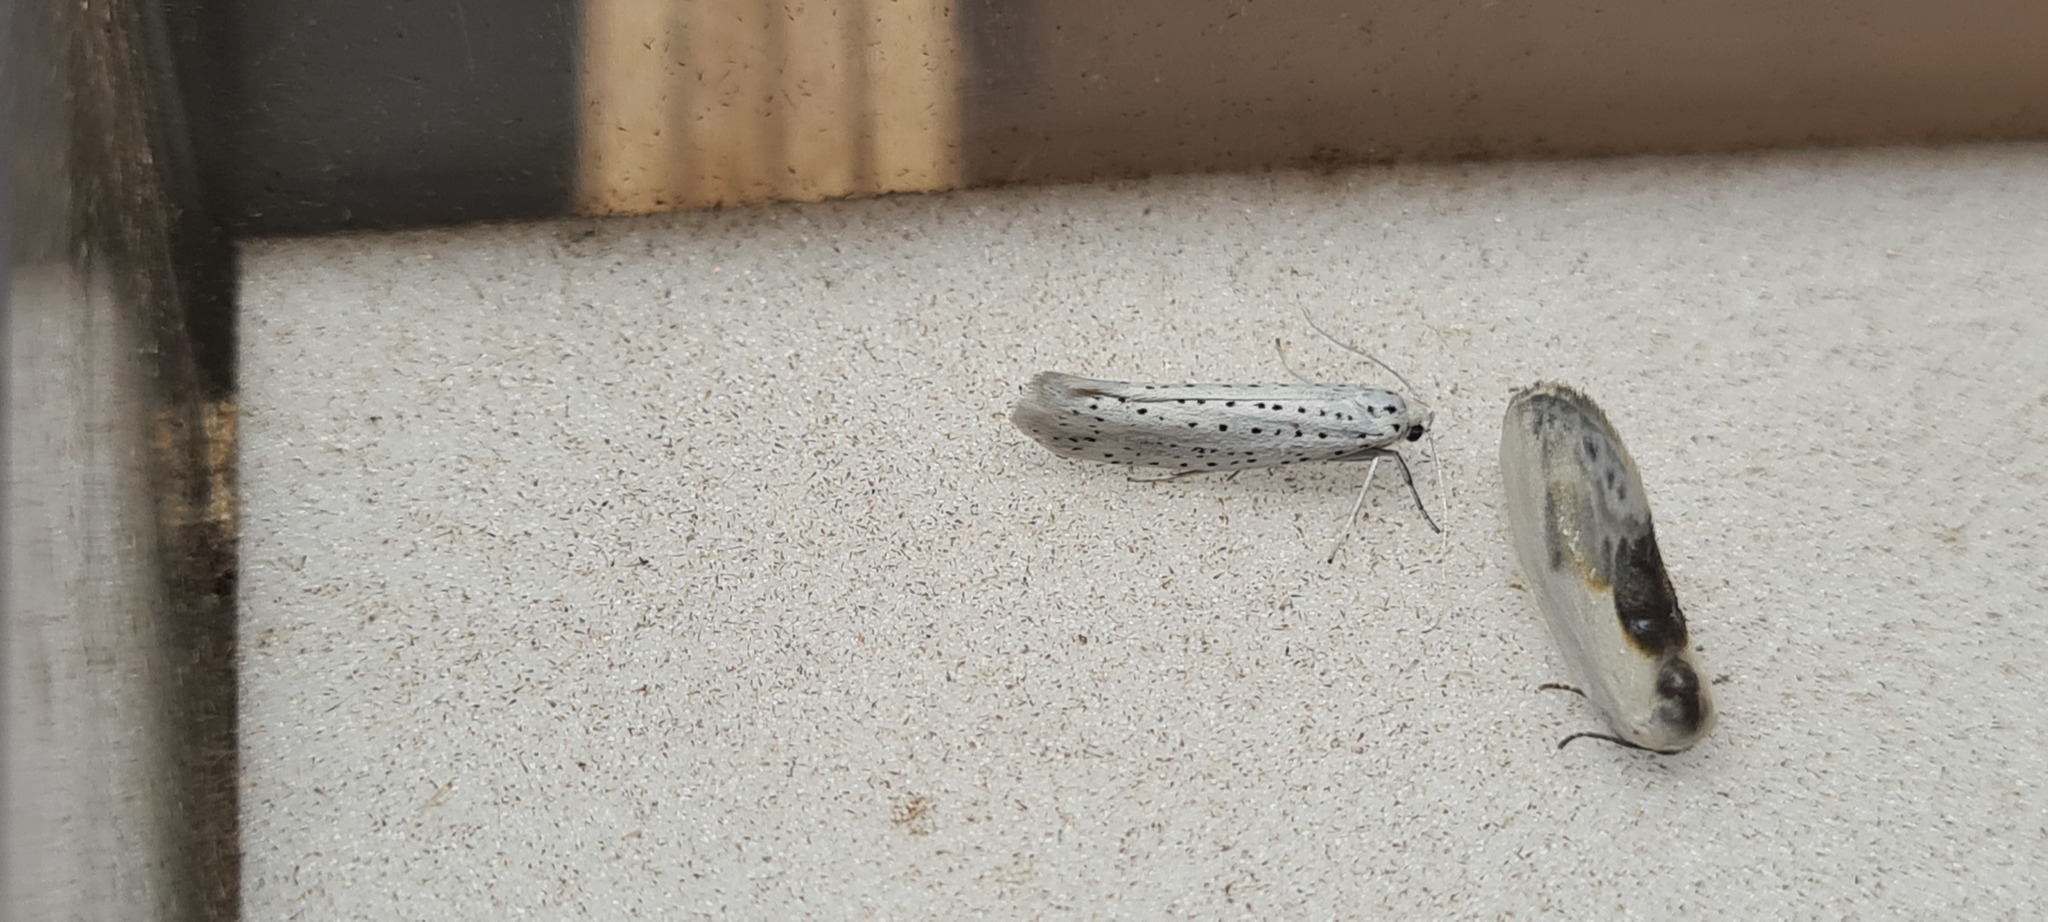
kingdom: Animalia
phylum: Arthropoda
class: Insecta
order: Lepidoptera
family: Yponomeutidae
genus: Yponomeuta
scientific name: Yponomeuta evonymella
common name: Bird-cherry ermine
